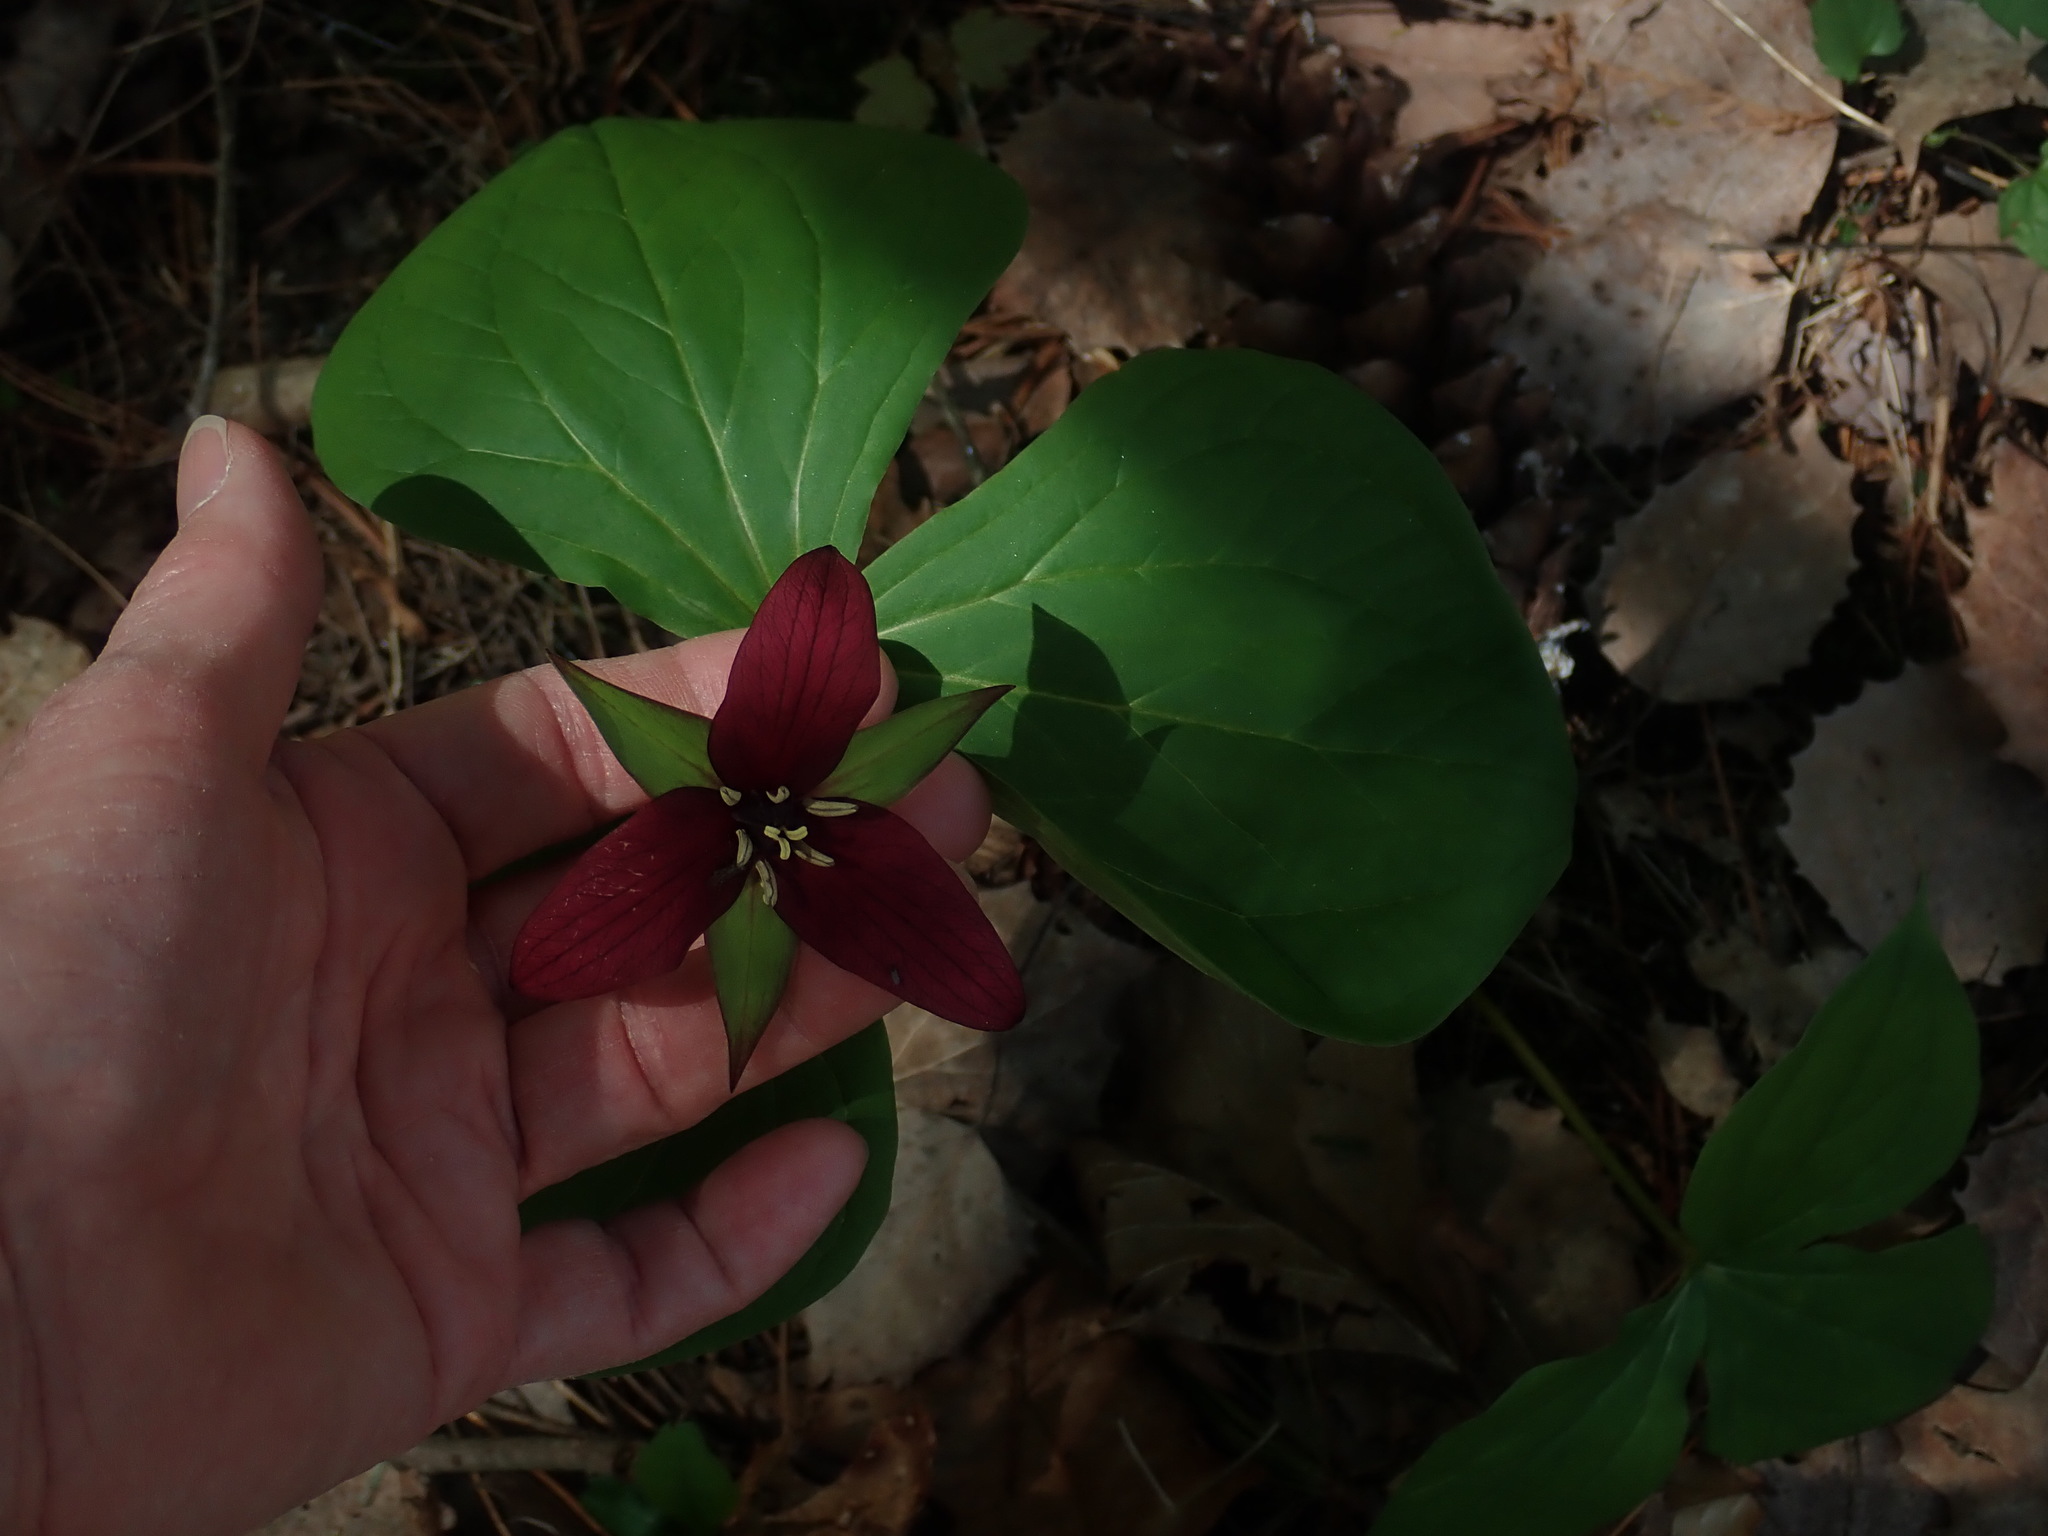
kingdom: Plantae
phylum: Tracheophyta
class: Liliopsida
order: Liliales
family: Melanthiaceae
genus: Trillium
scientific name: Trillium erectum
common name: Purple trillium
